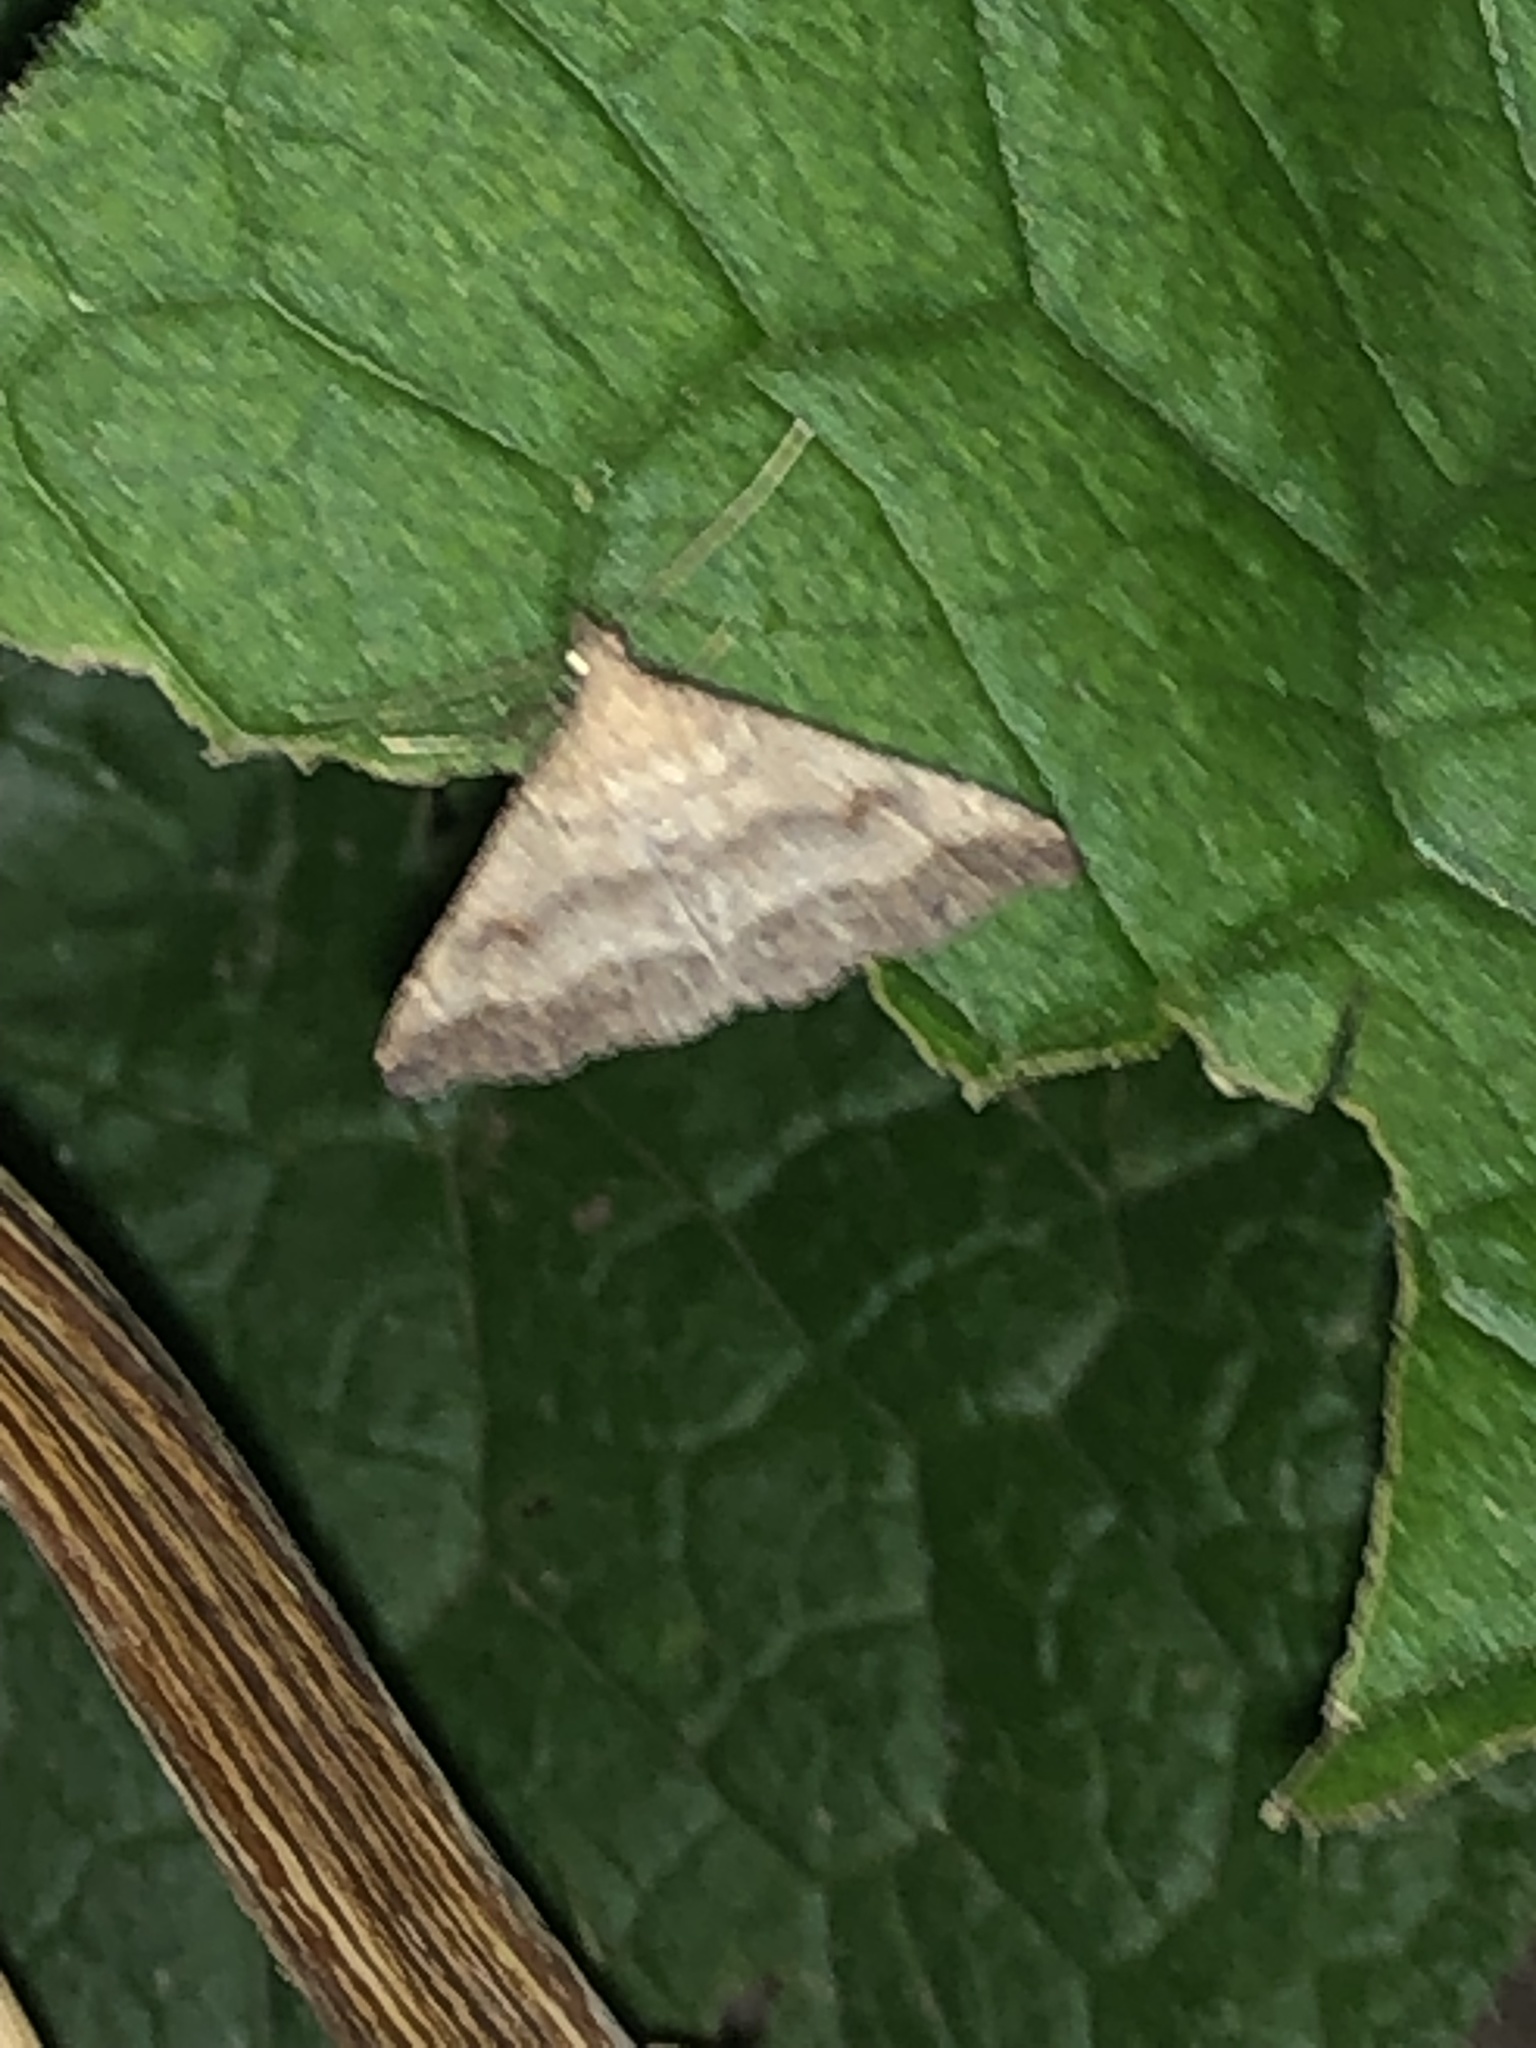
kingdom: Animalia
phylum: Arthropoda
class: Insecta
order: Lepidoptera
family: Erebidae
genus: Tetanolita
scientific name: Tetanolita palligera
